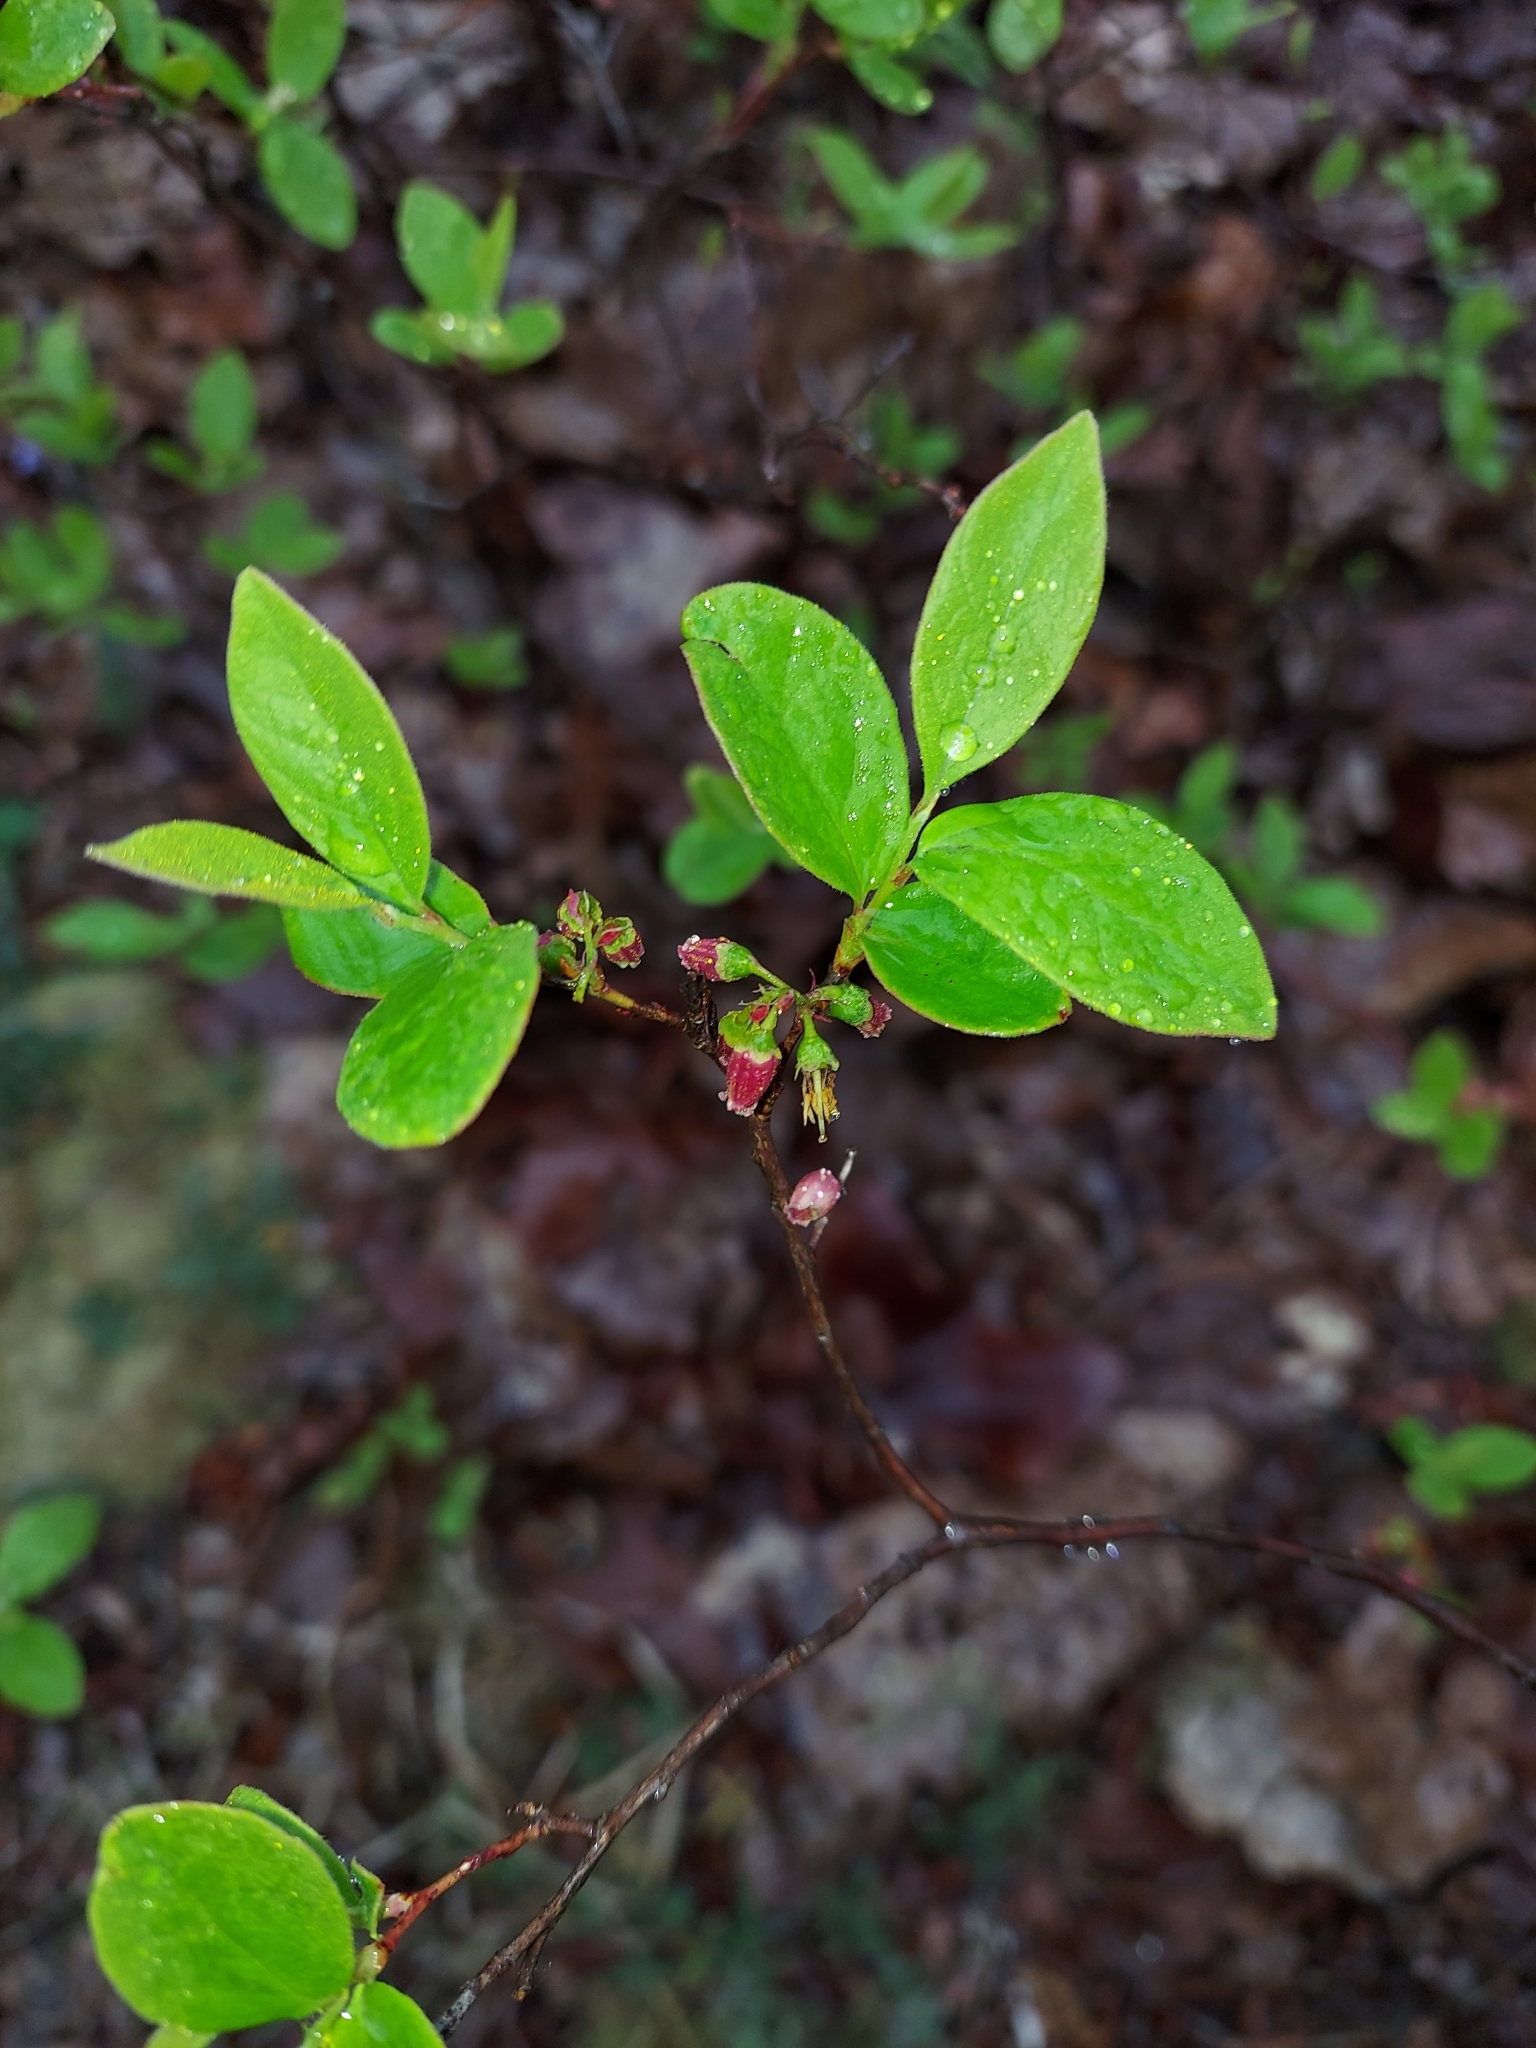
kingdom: Plantae
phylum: Tracheophyta
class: Magnoliopsida
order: Ericales
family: Ericaceae
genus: Gaylussacia
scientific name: Gaylussacia baccata
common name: Black huckleberry
